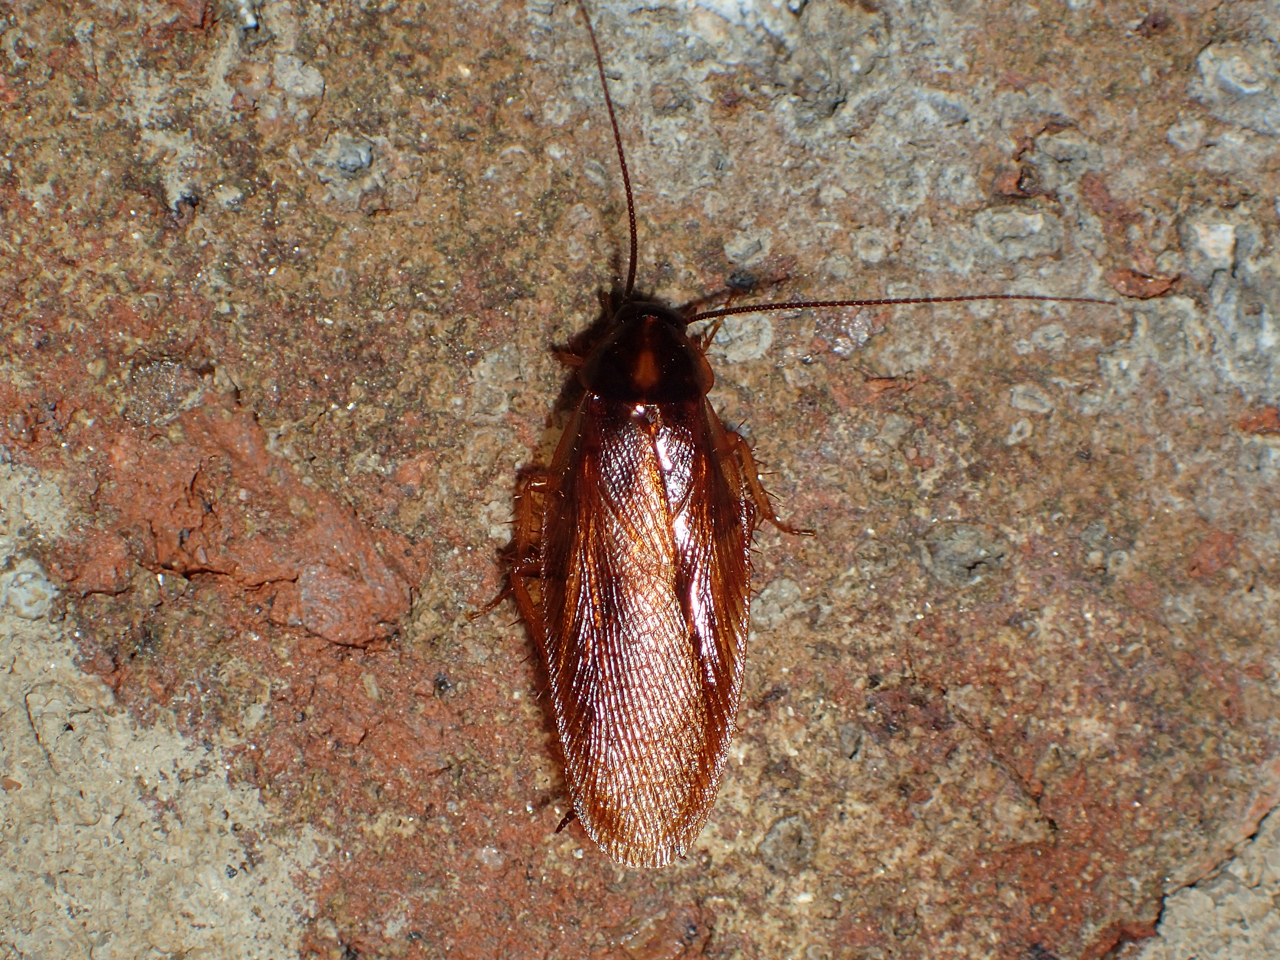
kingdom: Animalia
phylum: Arthropoda
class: Insecta
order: Blattodea
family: Ectobiidae
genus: Parcoblatta
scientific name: Parcoblatta bolliana
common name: Boll's wood cockroach
